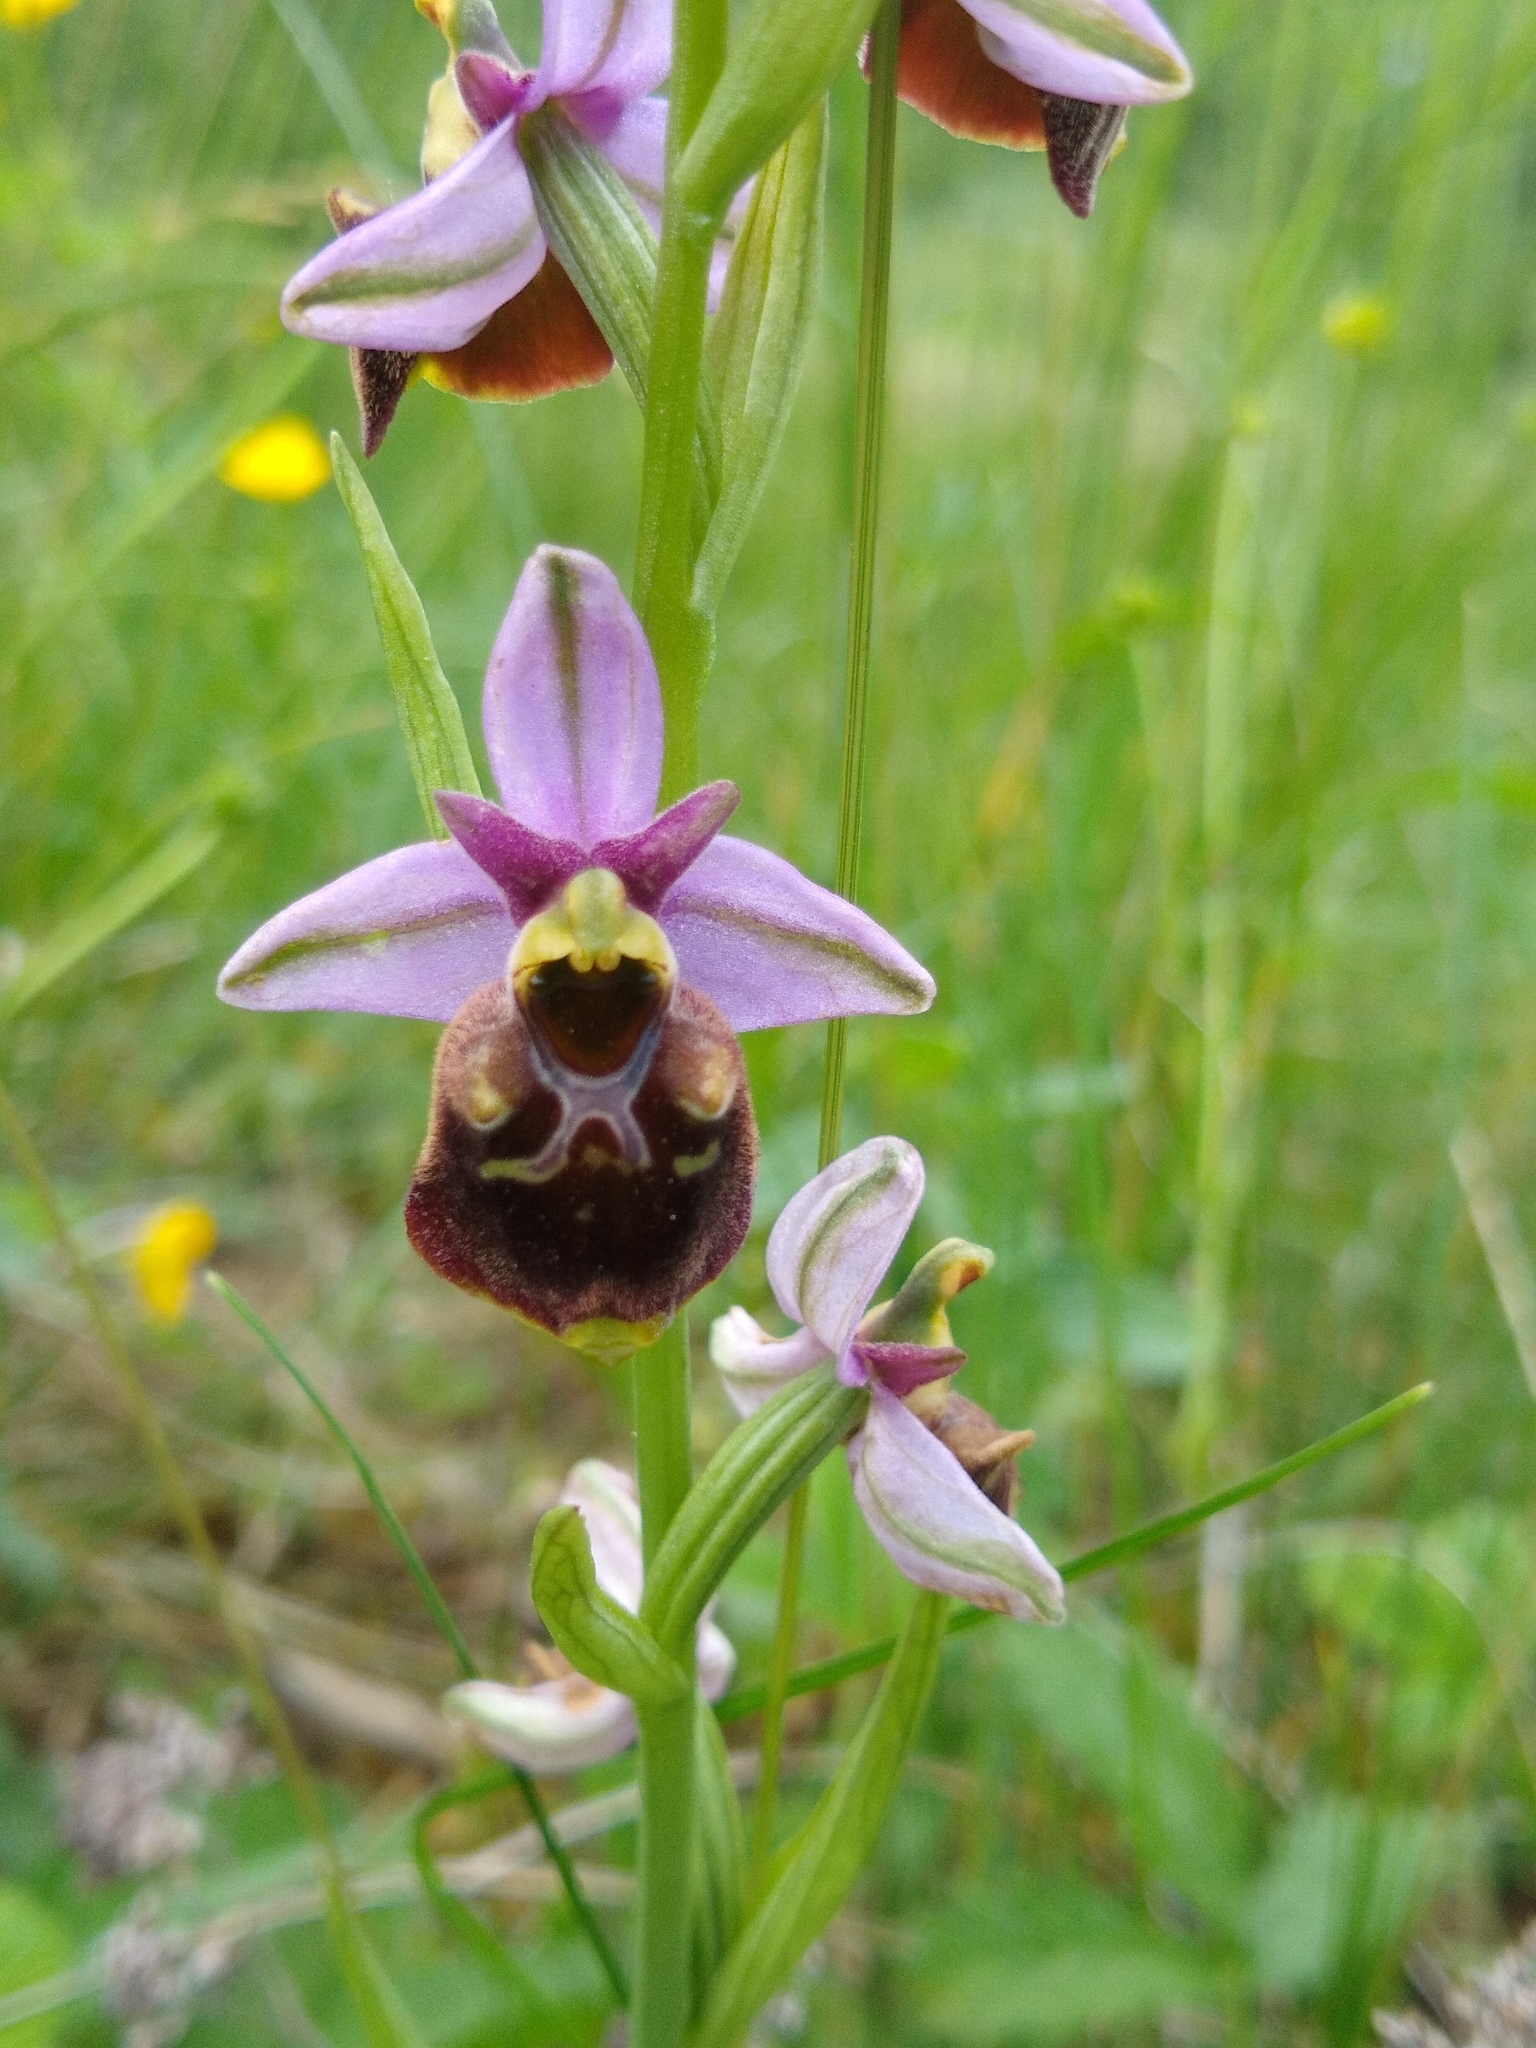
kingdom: Plantae
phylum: Tracheophyta
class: Liliopsida
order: Asparagales
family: Orchidaceae
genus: Ophrys
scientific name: Ophrys holosericea
